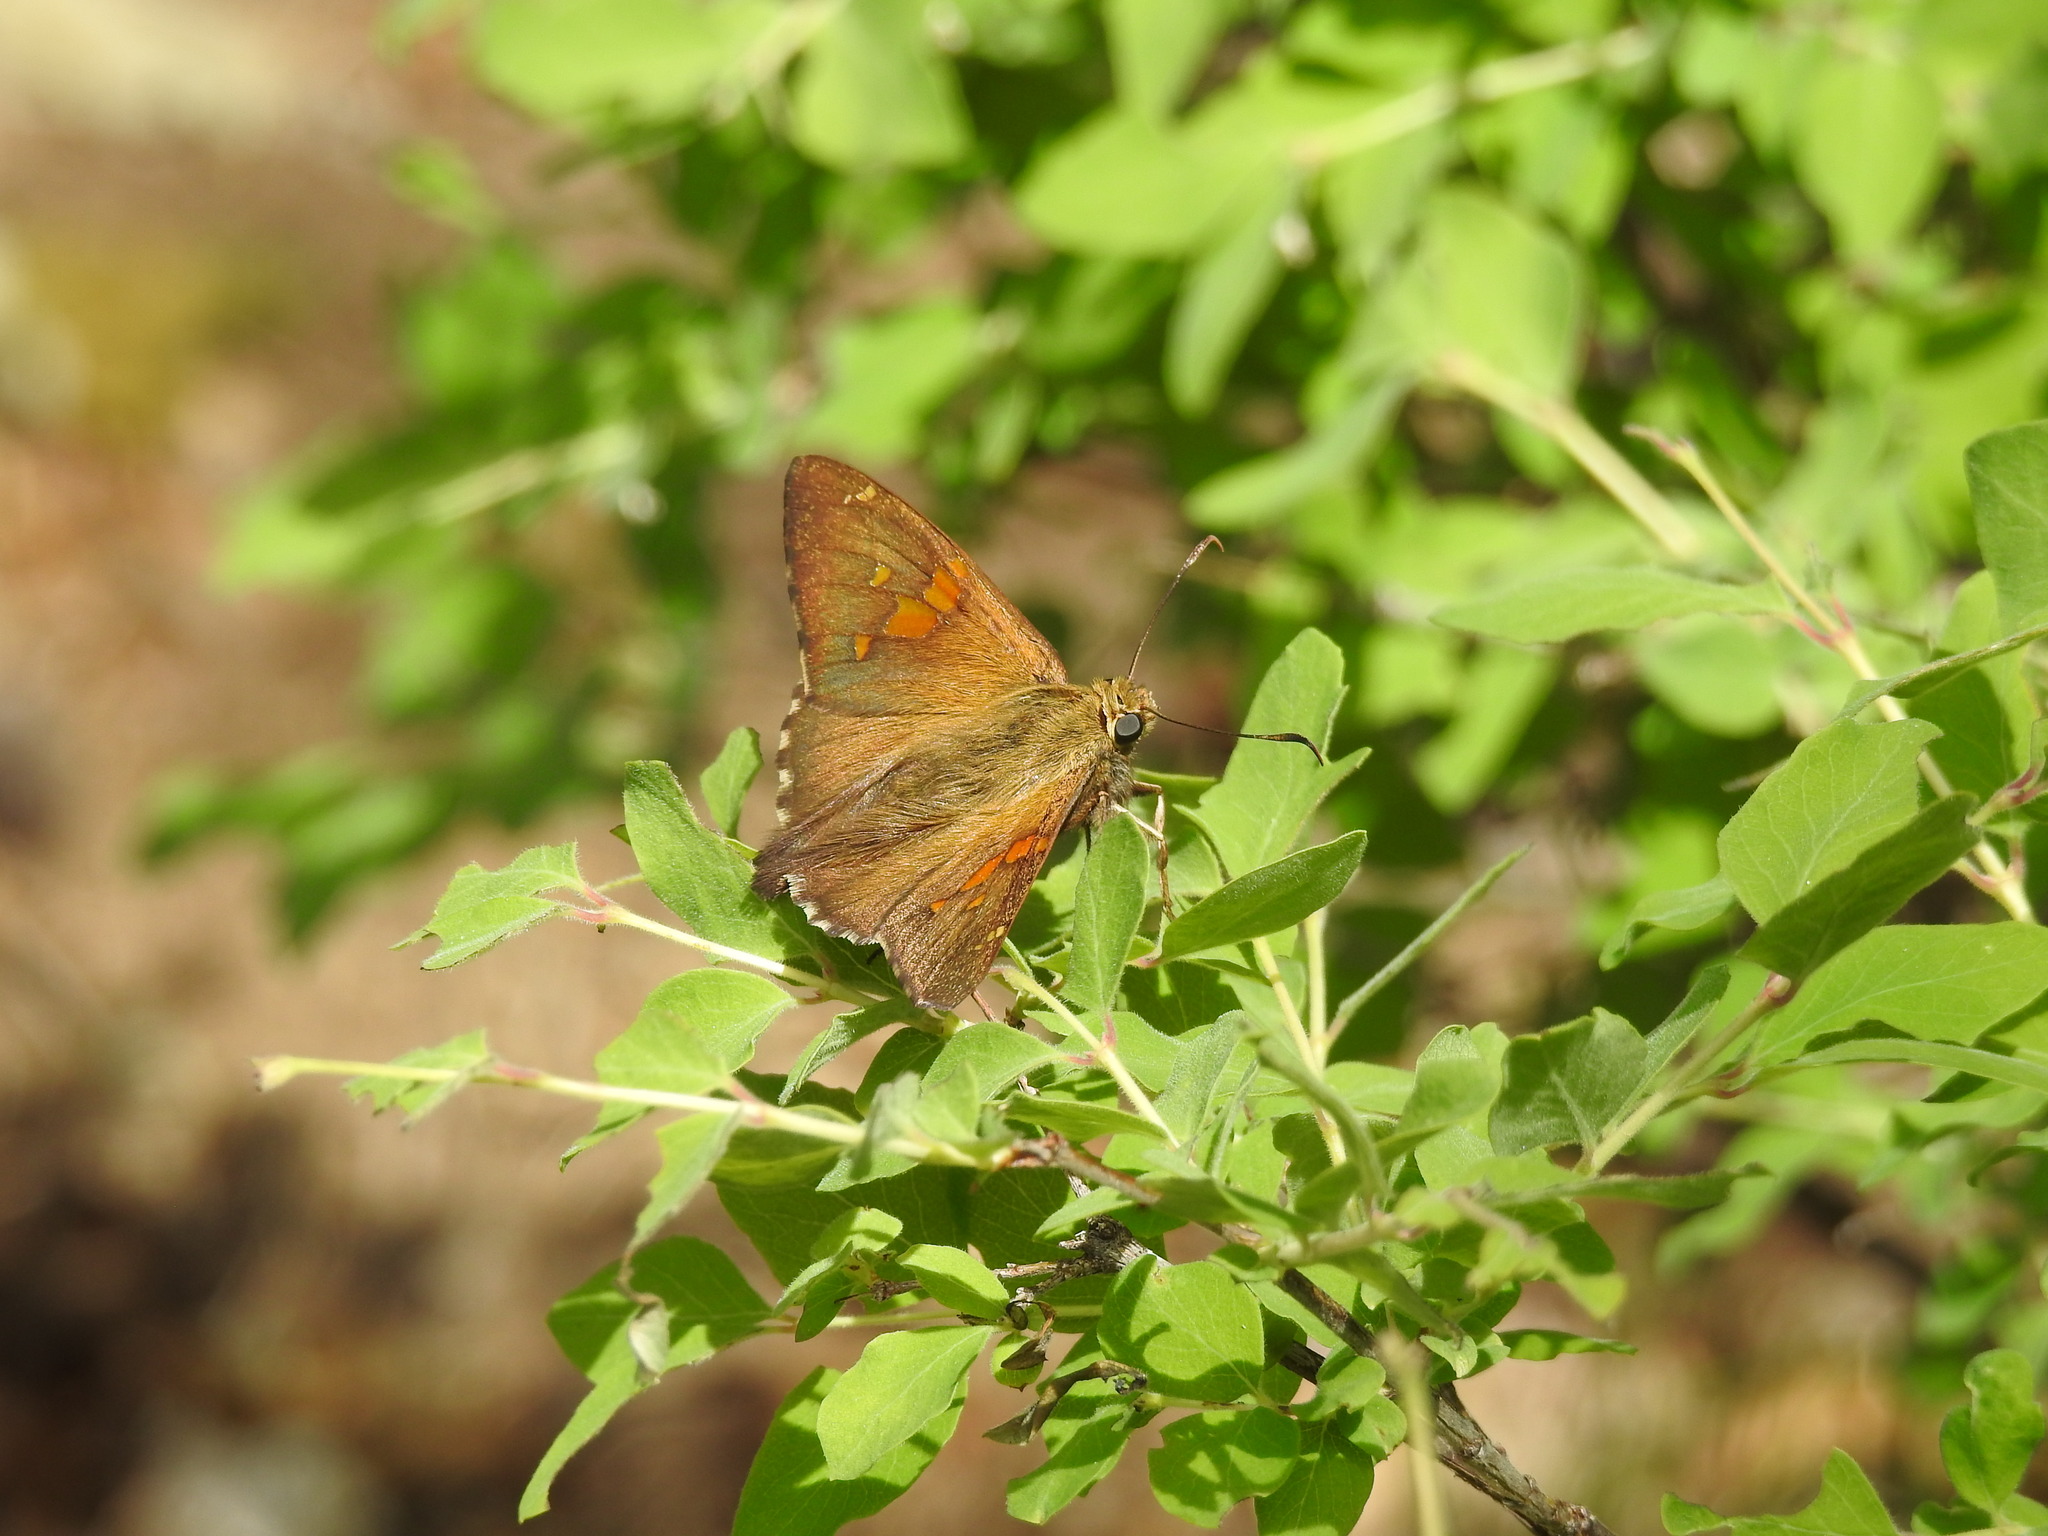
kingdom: Animalia
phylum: Arthropoda
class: Insecta
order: Lepidoptera
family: Hesperiidae
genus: Epargyreus
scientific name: Epargyreus clarus
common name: Silver-spotted skipper
